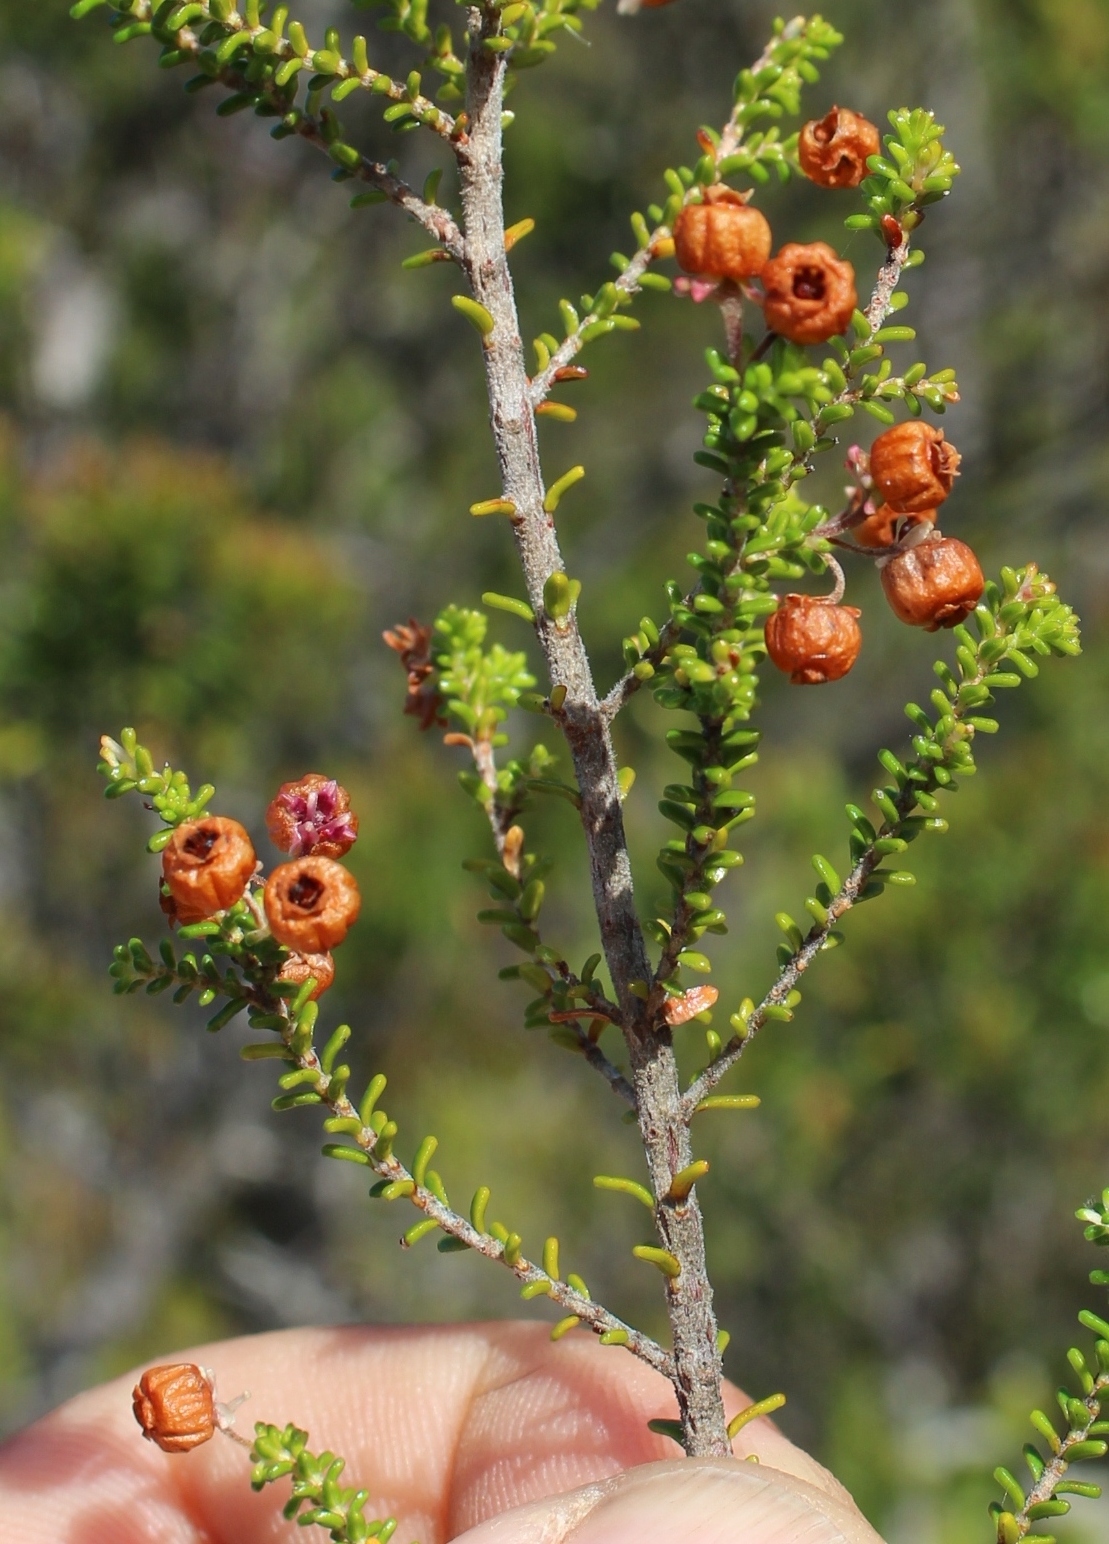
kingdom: Plantae
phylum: Tracheophyta
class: Magnoliopsida
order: Ericales
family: Ericaceae
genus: Erica
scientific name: Erica formosa
